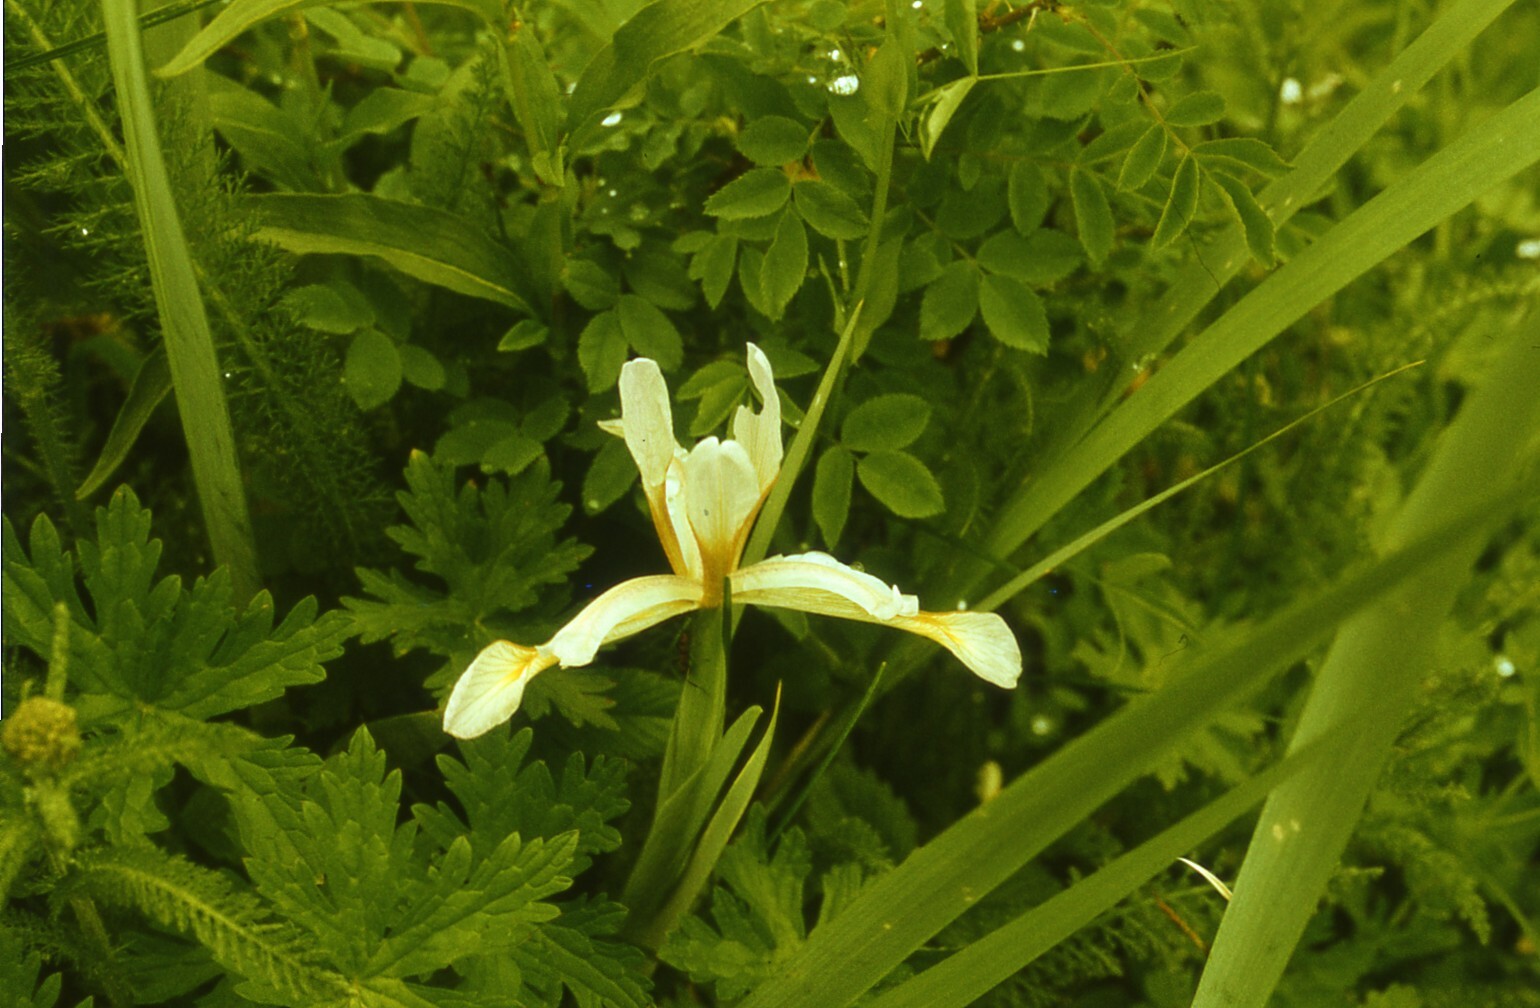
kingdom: Plantae
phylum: Tracheophyta
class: Liliopsida
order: Asparagales
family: Iridaceae
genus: Iris
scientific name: Iris halophila
